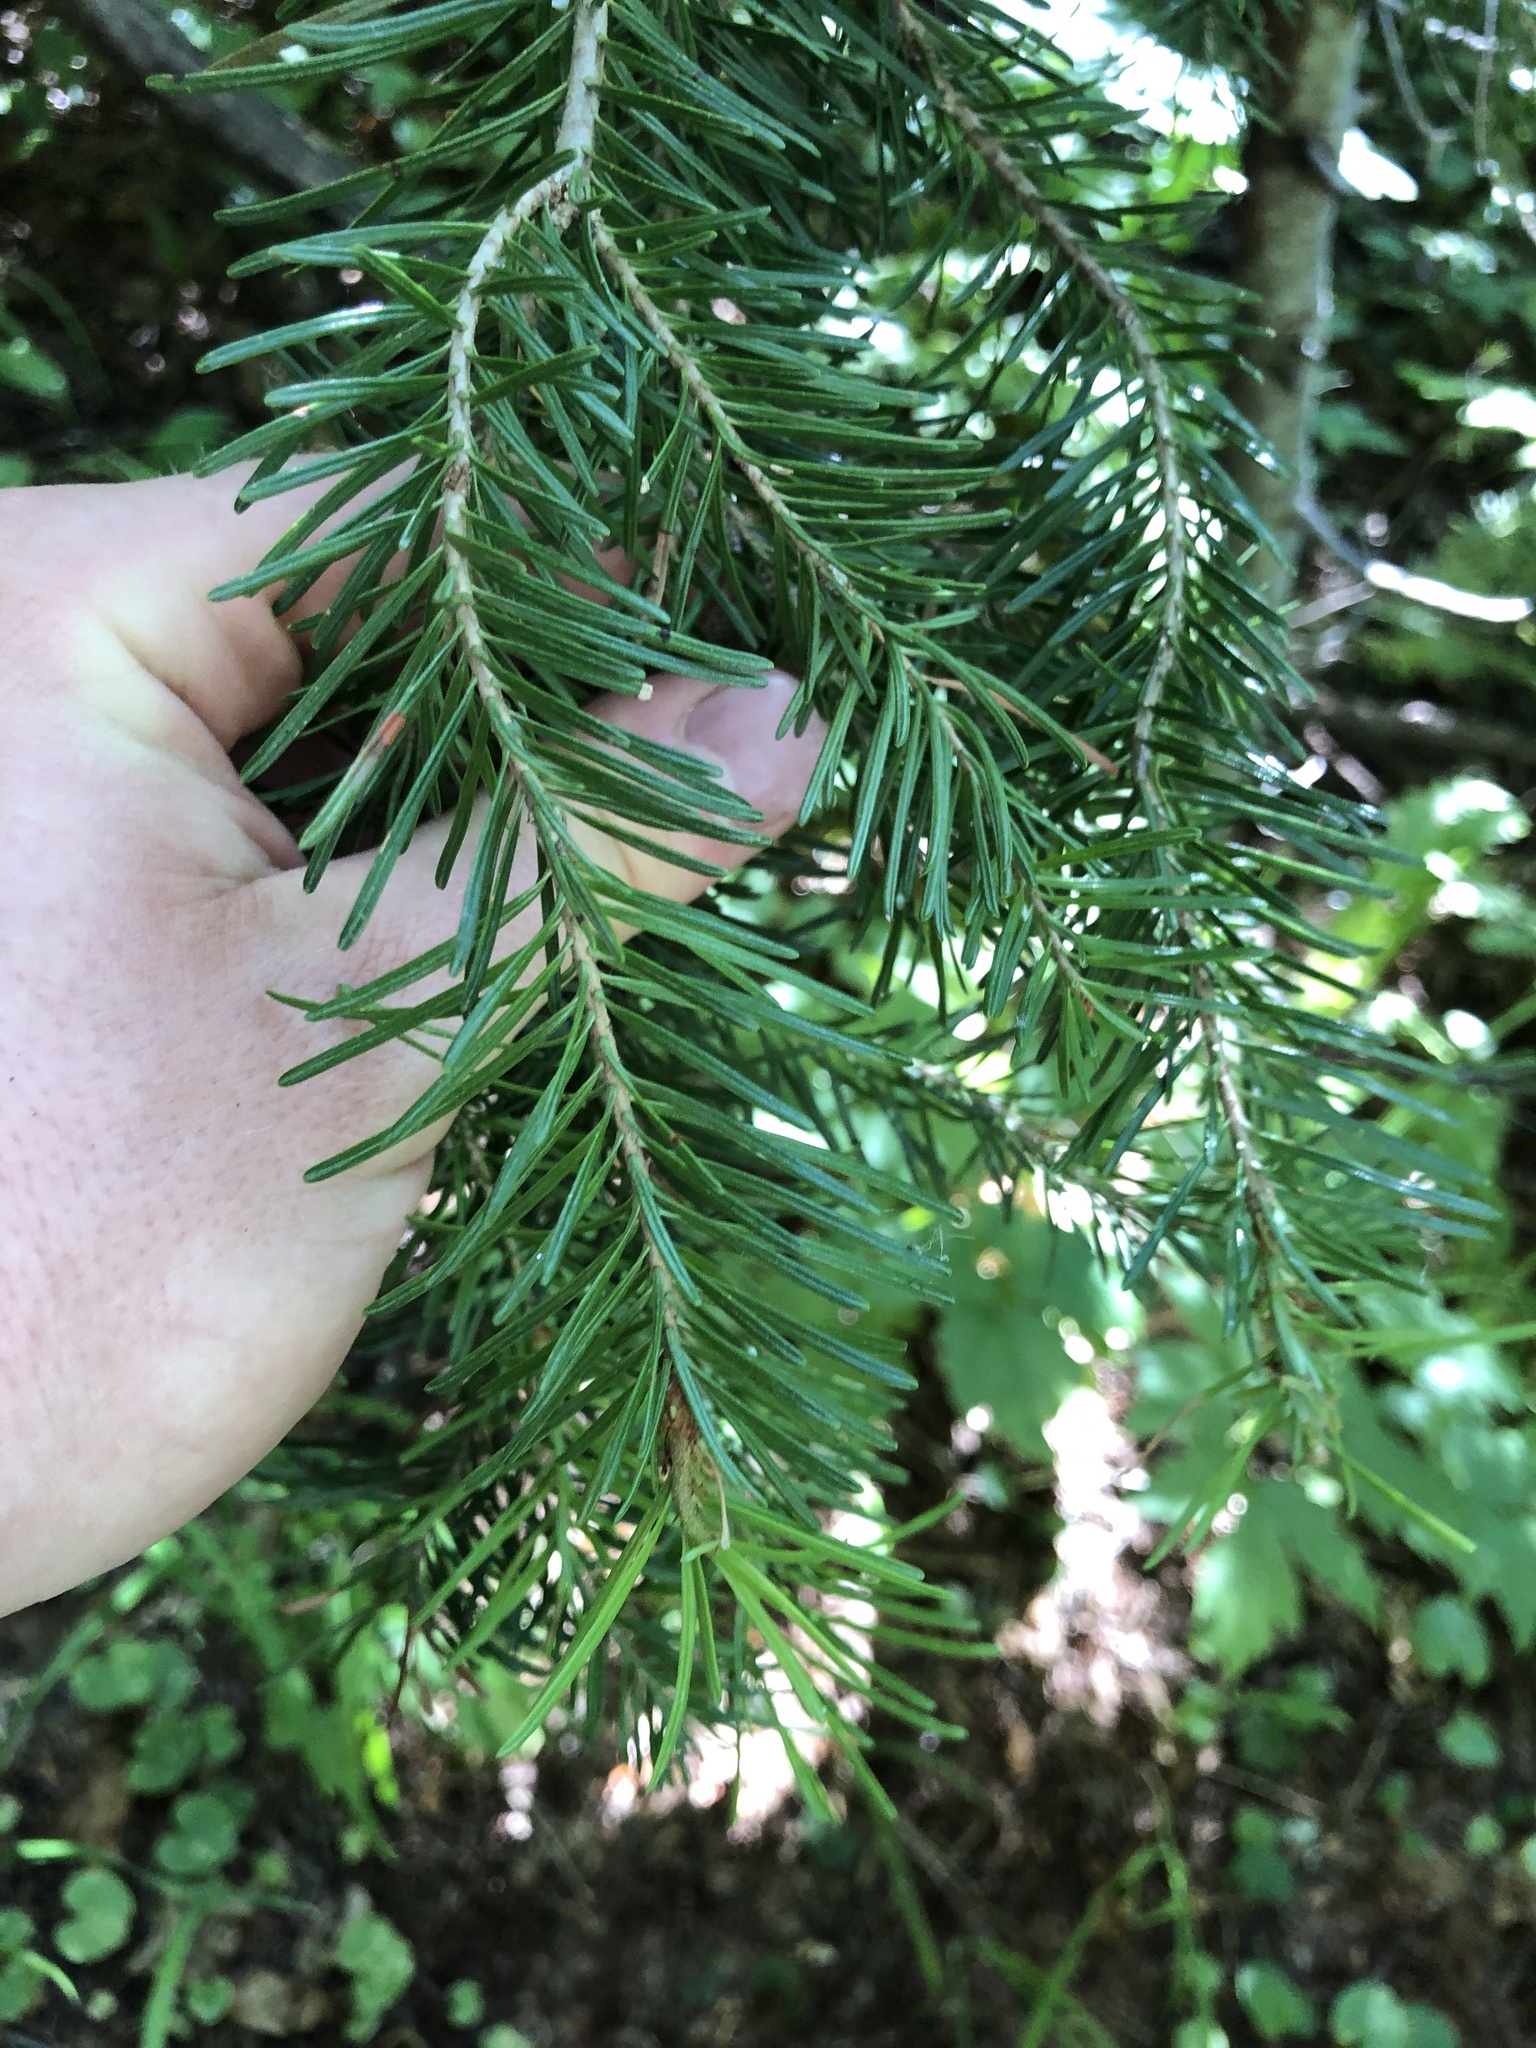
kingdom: Plantae
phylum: Tracheophyta
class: Pinopsida
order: Pinales
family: Pinaceae
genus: Abies
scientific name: Abies lasiocarpa
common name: Subalpine fir
